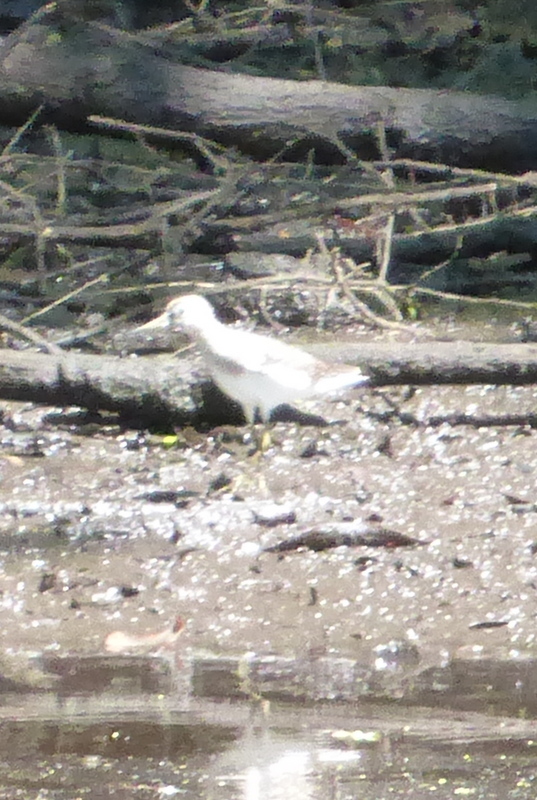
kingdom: Animalia
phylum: Chordata
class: Aves
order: Charadriiformes
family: Scolopacidae
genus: Actitis
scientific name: Actitis macularius
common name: Spotted sandpiper
